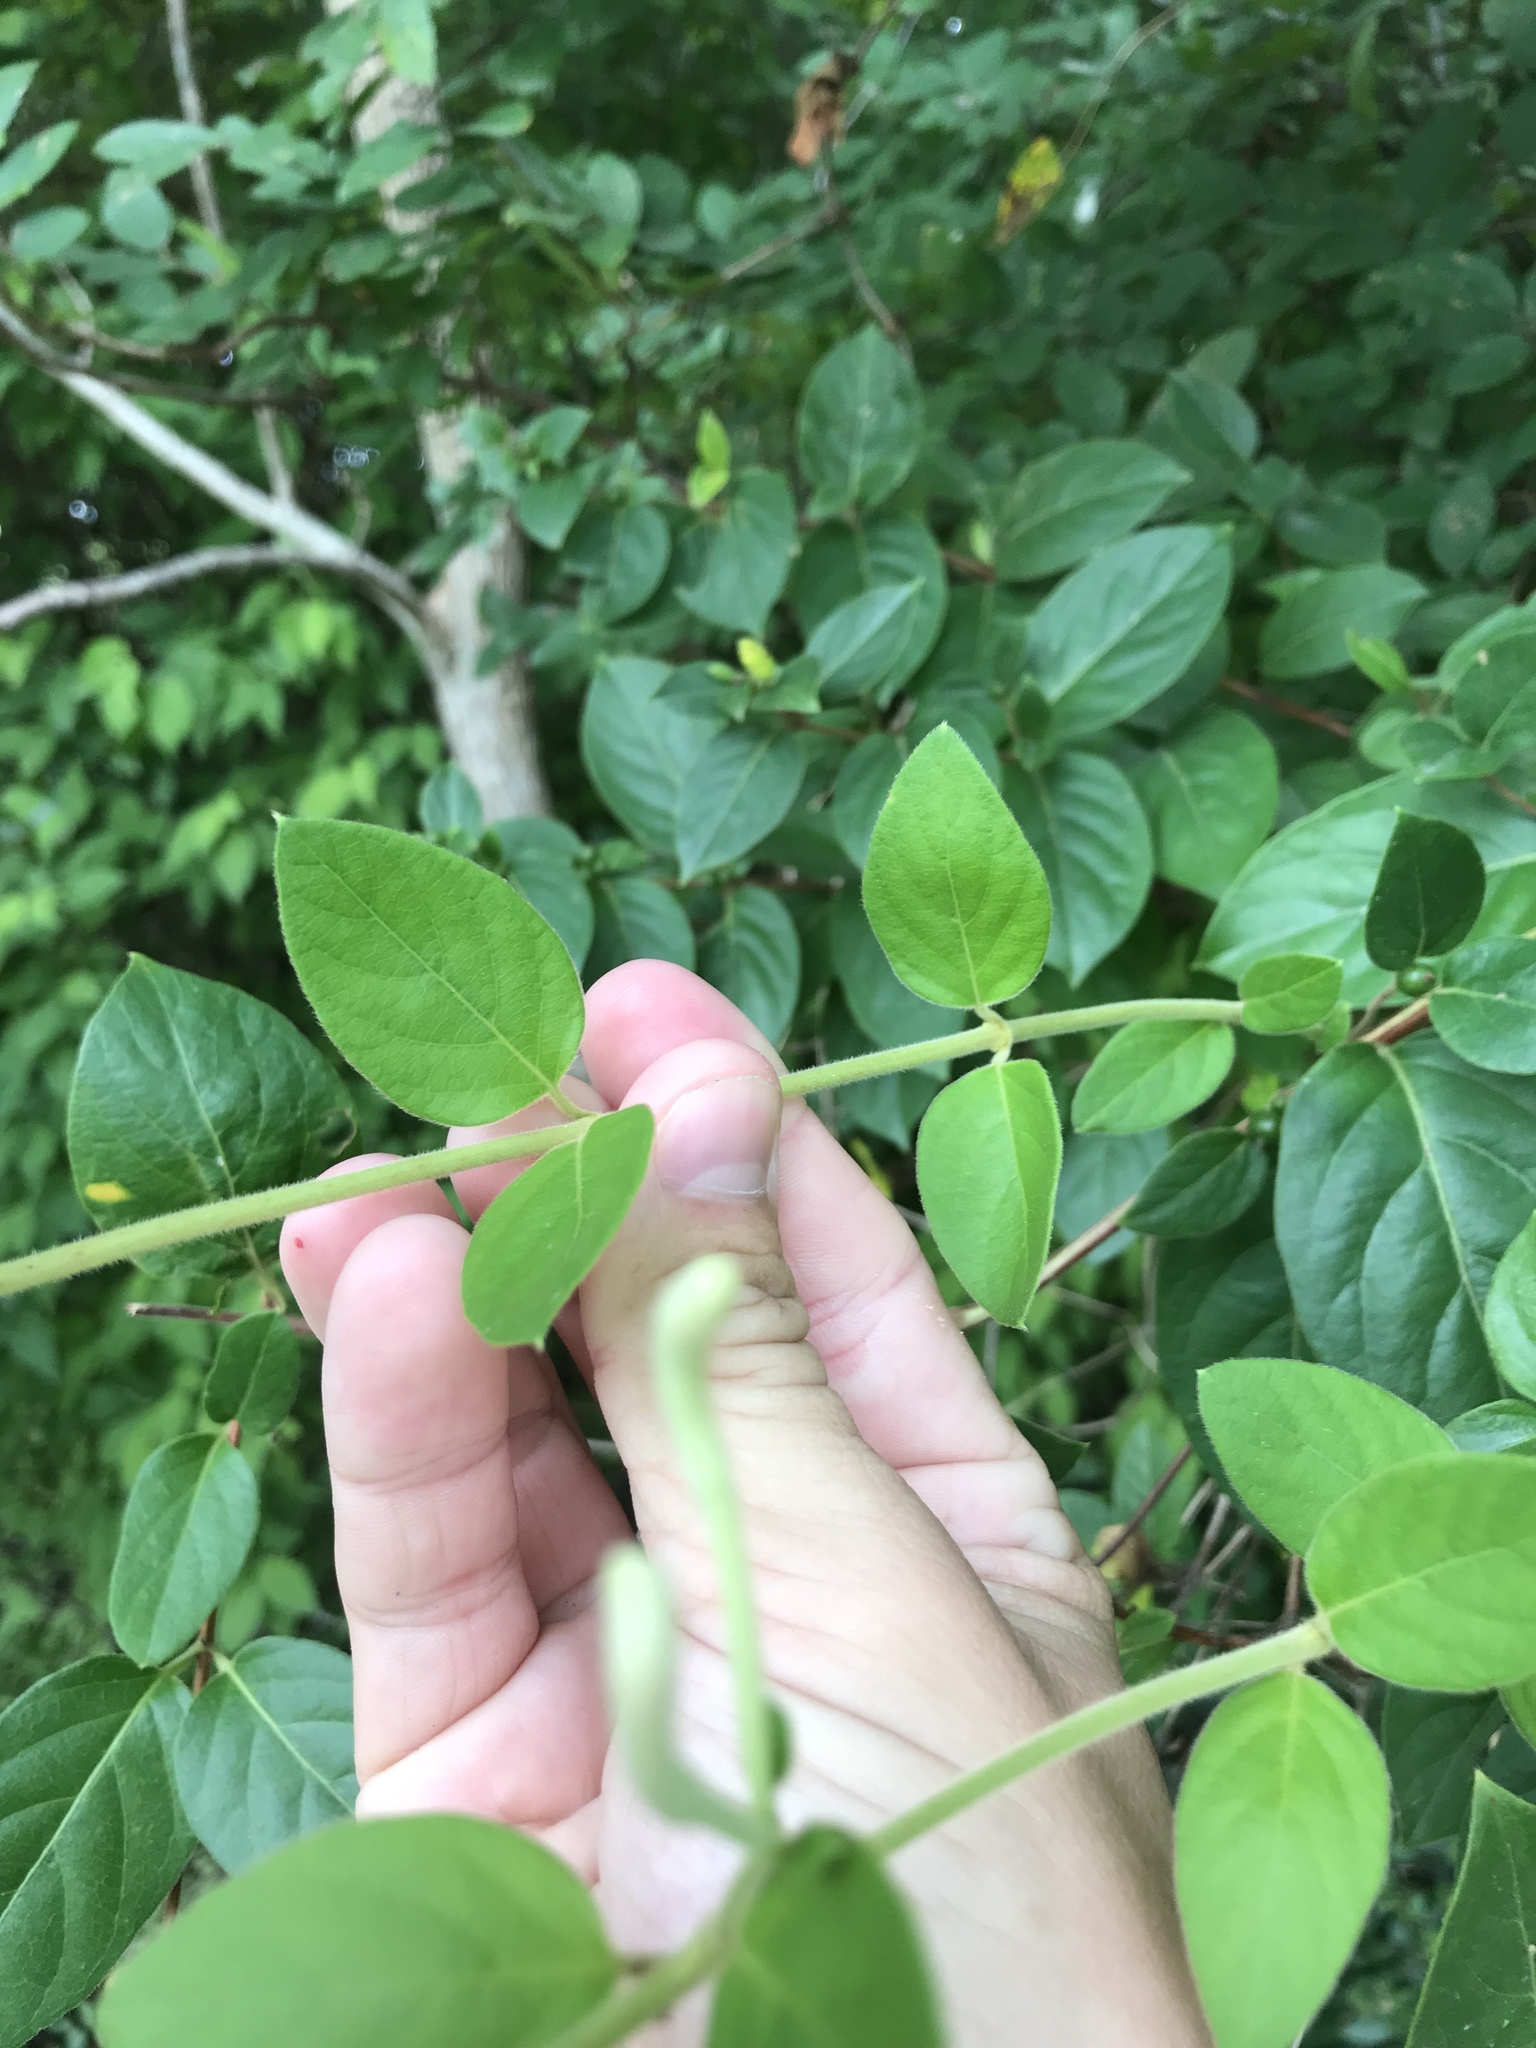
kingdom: Plantae
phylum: Tracheophyta
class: Magnoliopsida
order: Dipsacales
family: Caprifoliaceae
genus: Lonicera
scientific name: Lonicera japonica
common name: Japanese honeysuckle
